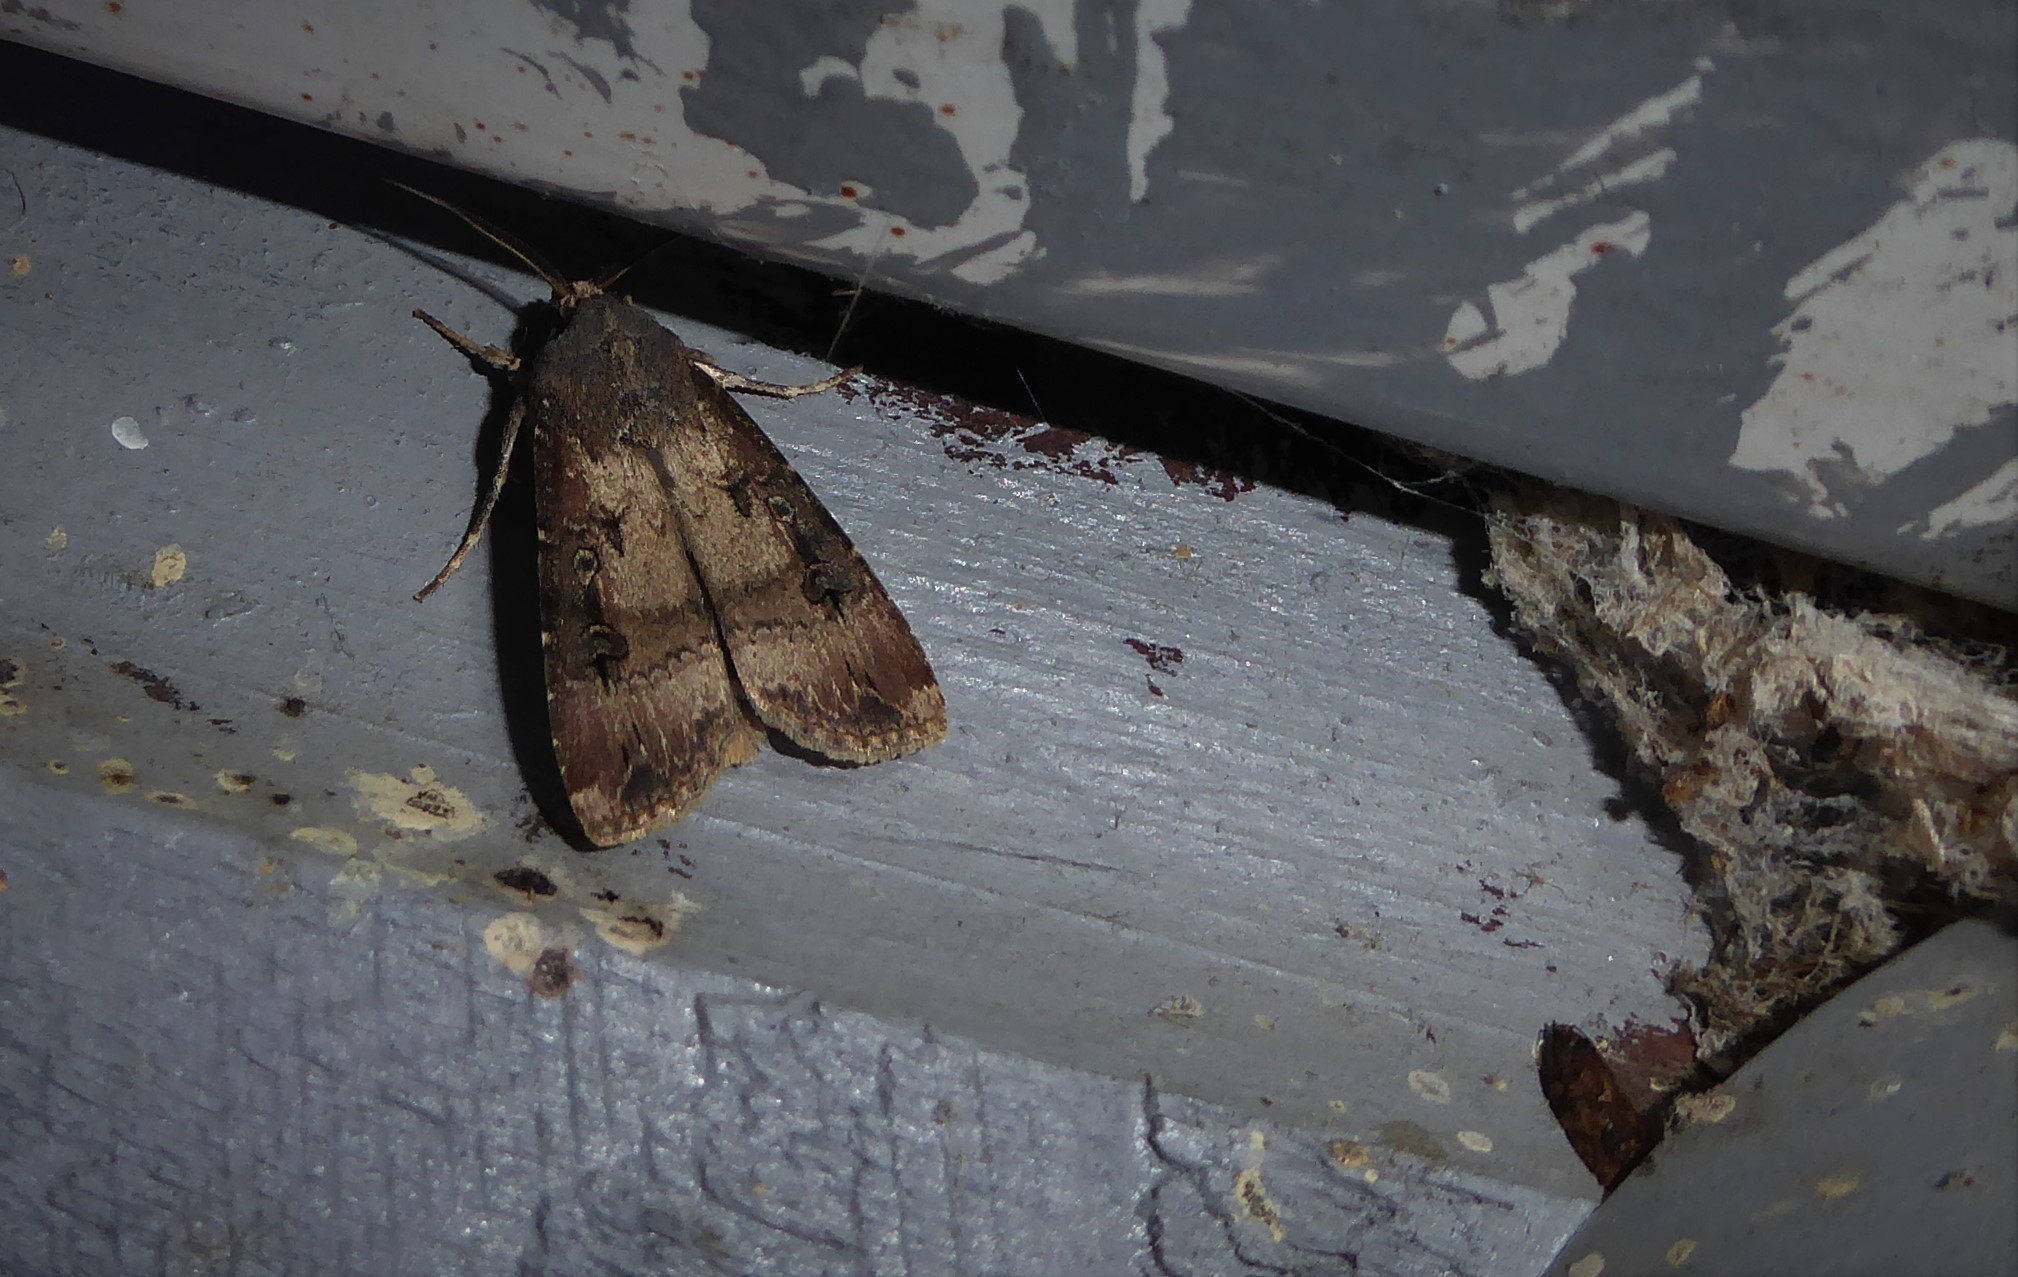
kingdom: Animalia
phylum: Arthropoda
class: Insecta
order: Lepidoptera
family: Noctuidae
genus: Agrotis
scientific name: Agrotis ipsilon
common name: Dark sword-grass
